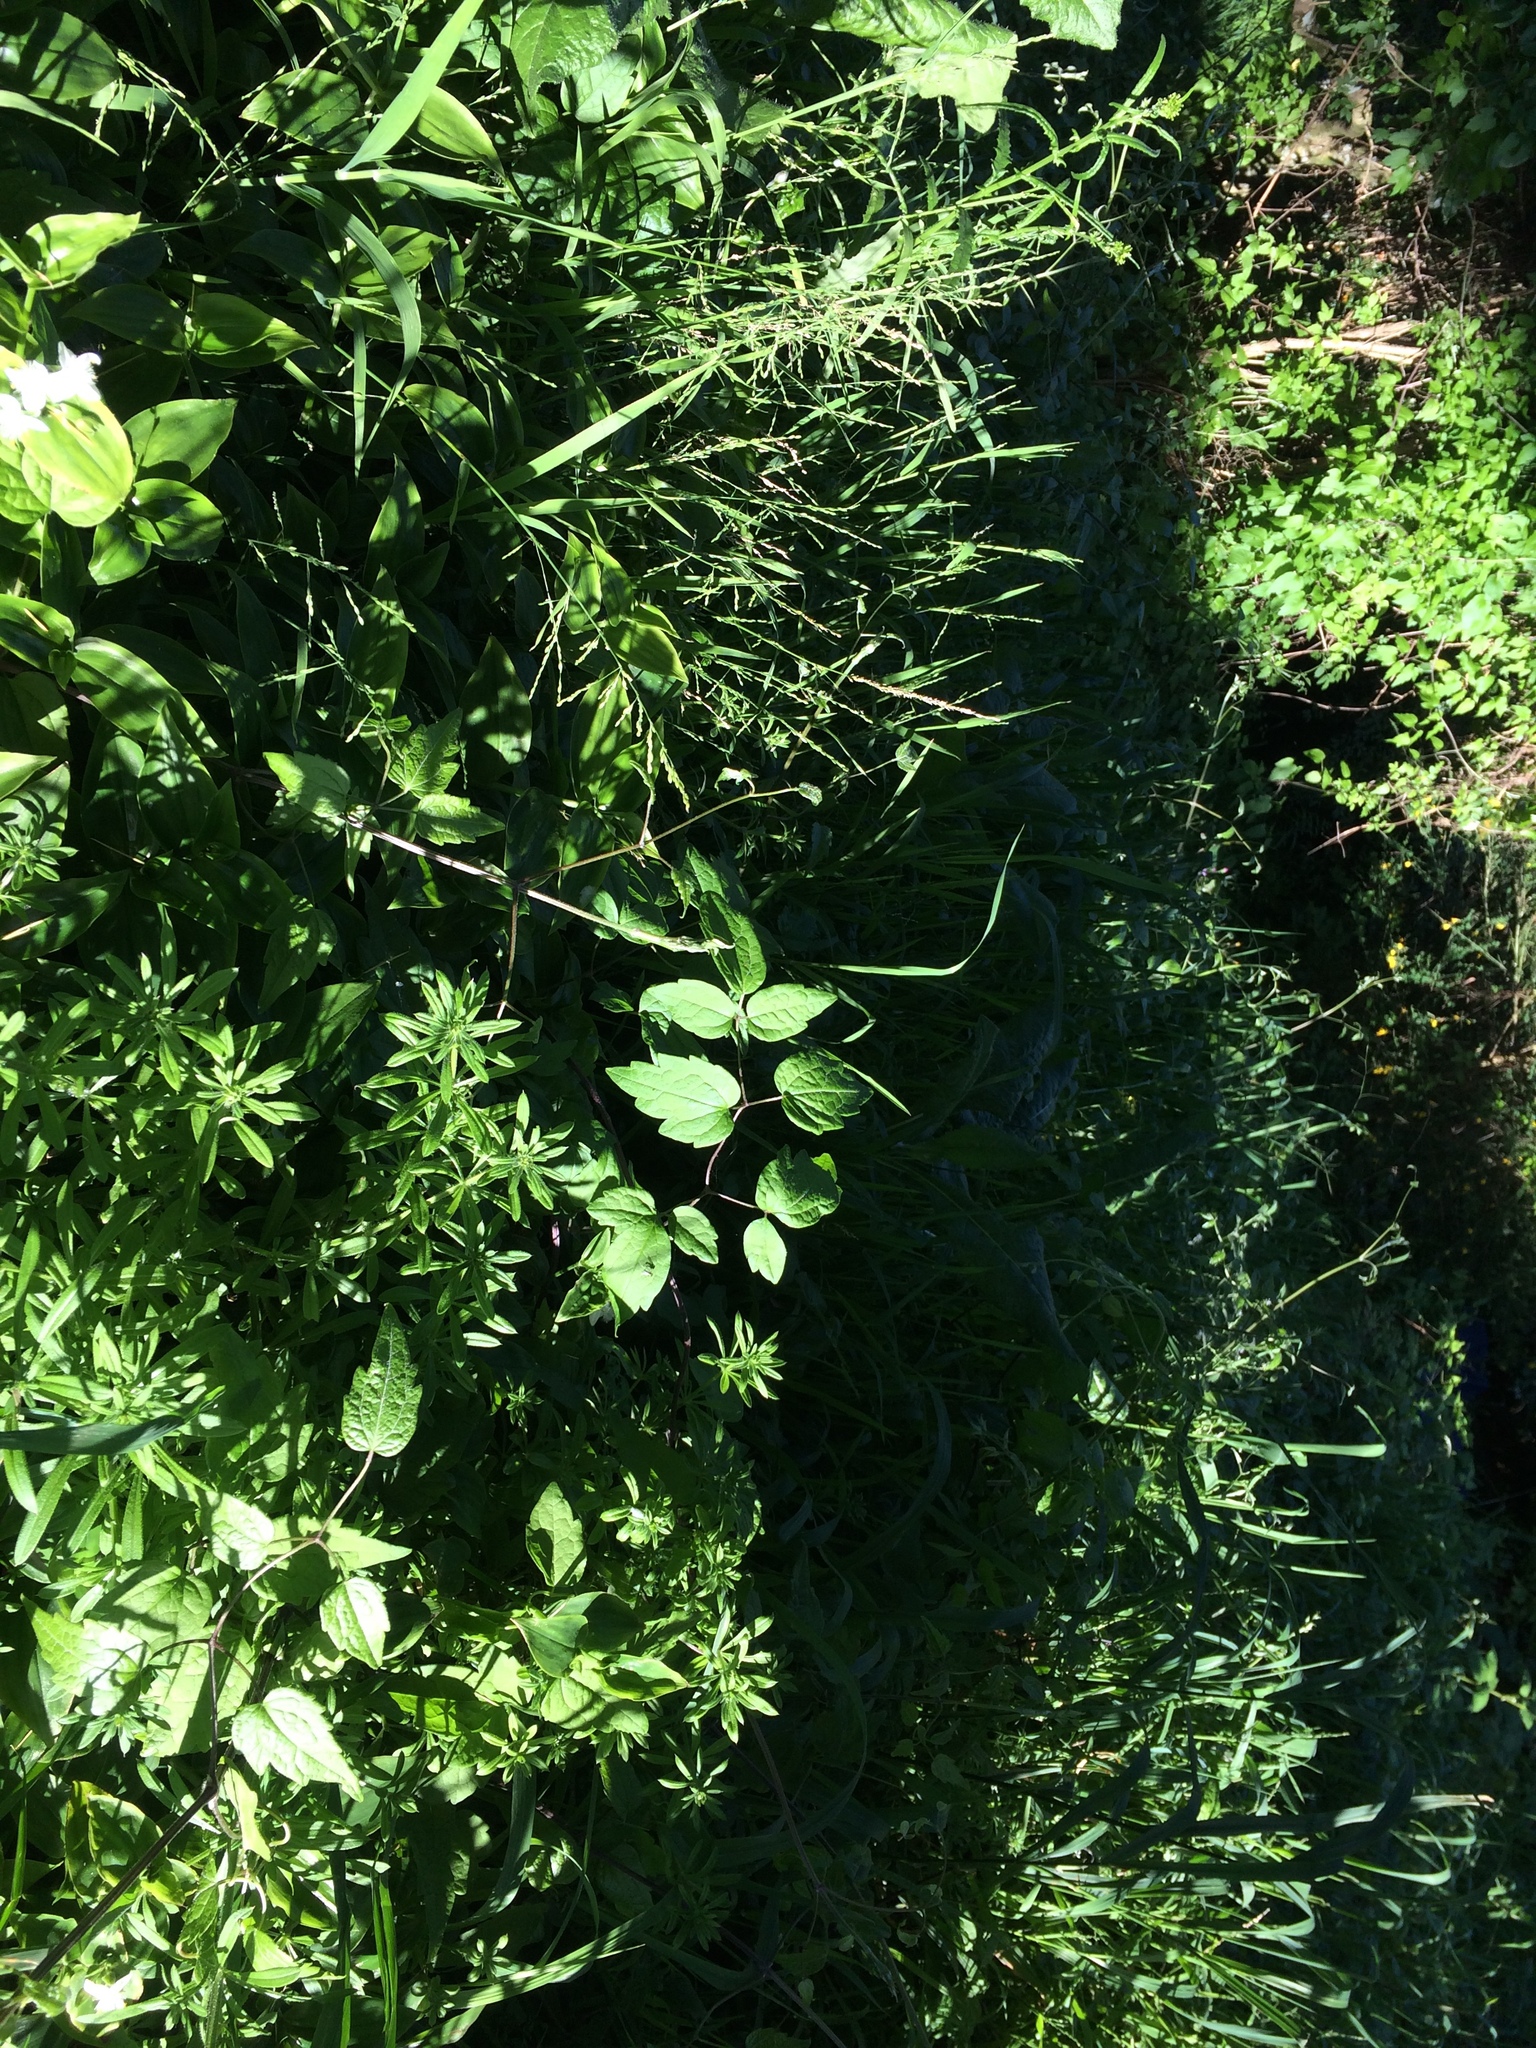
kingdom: Plantae
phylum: Tracheophyta
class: Magnoliopsida
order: Ranunculales
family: Ranunculaceae
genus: Clematis
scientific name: Clematis vitalba
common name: Evergreen clematis
